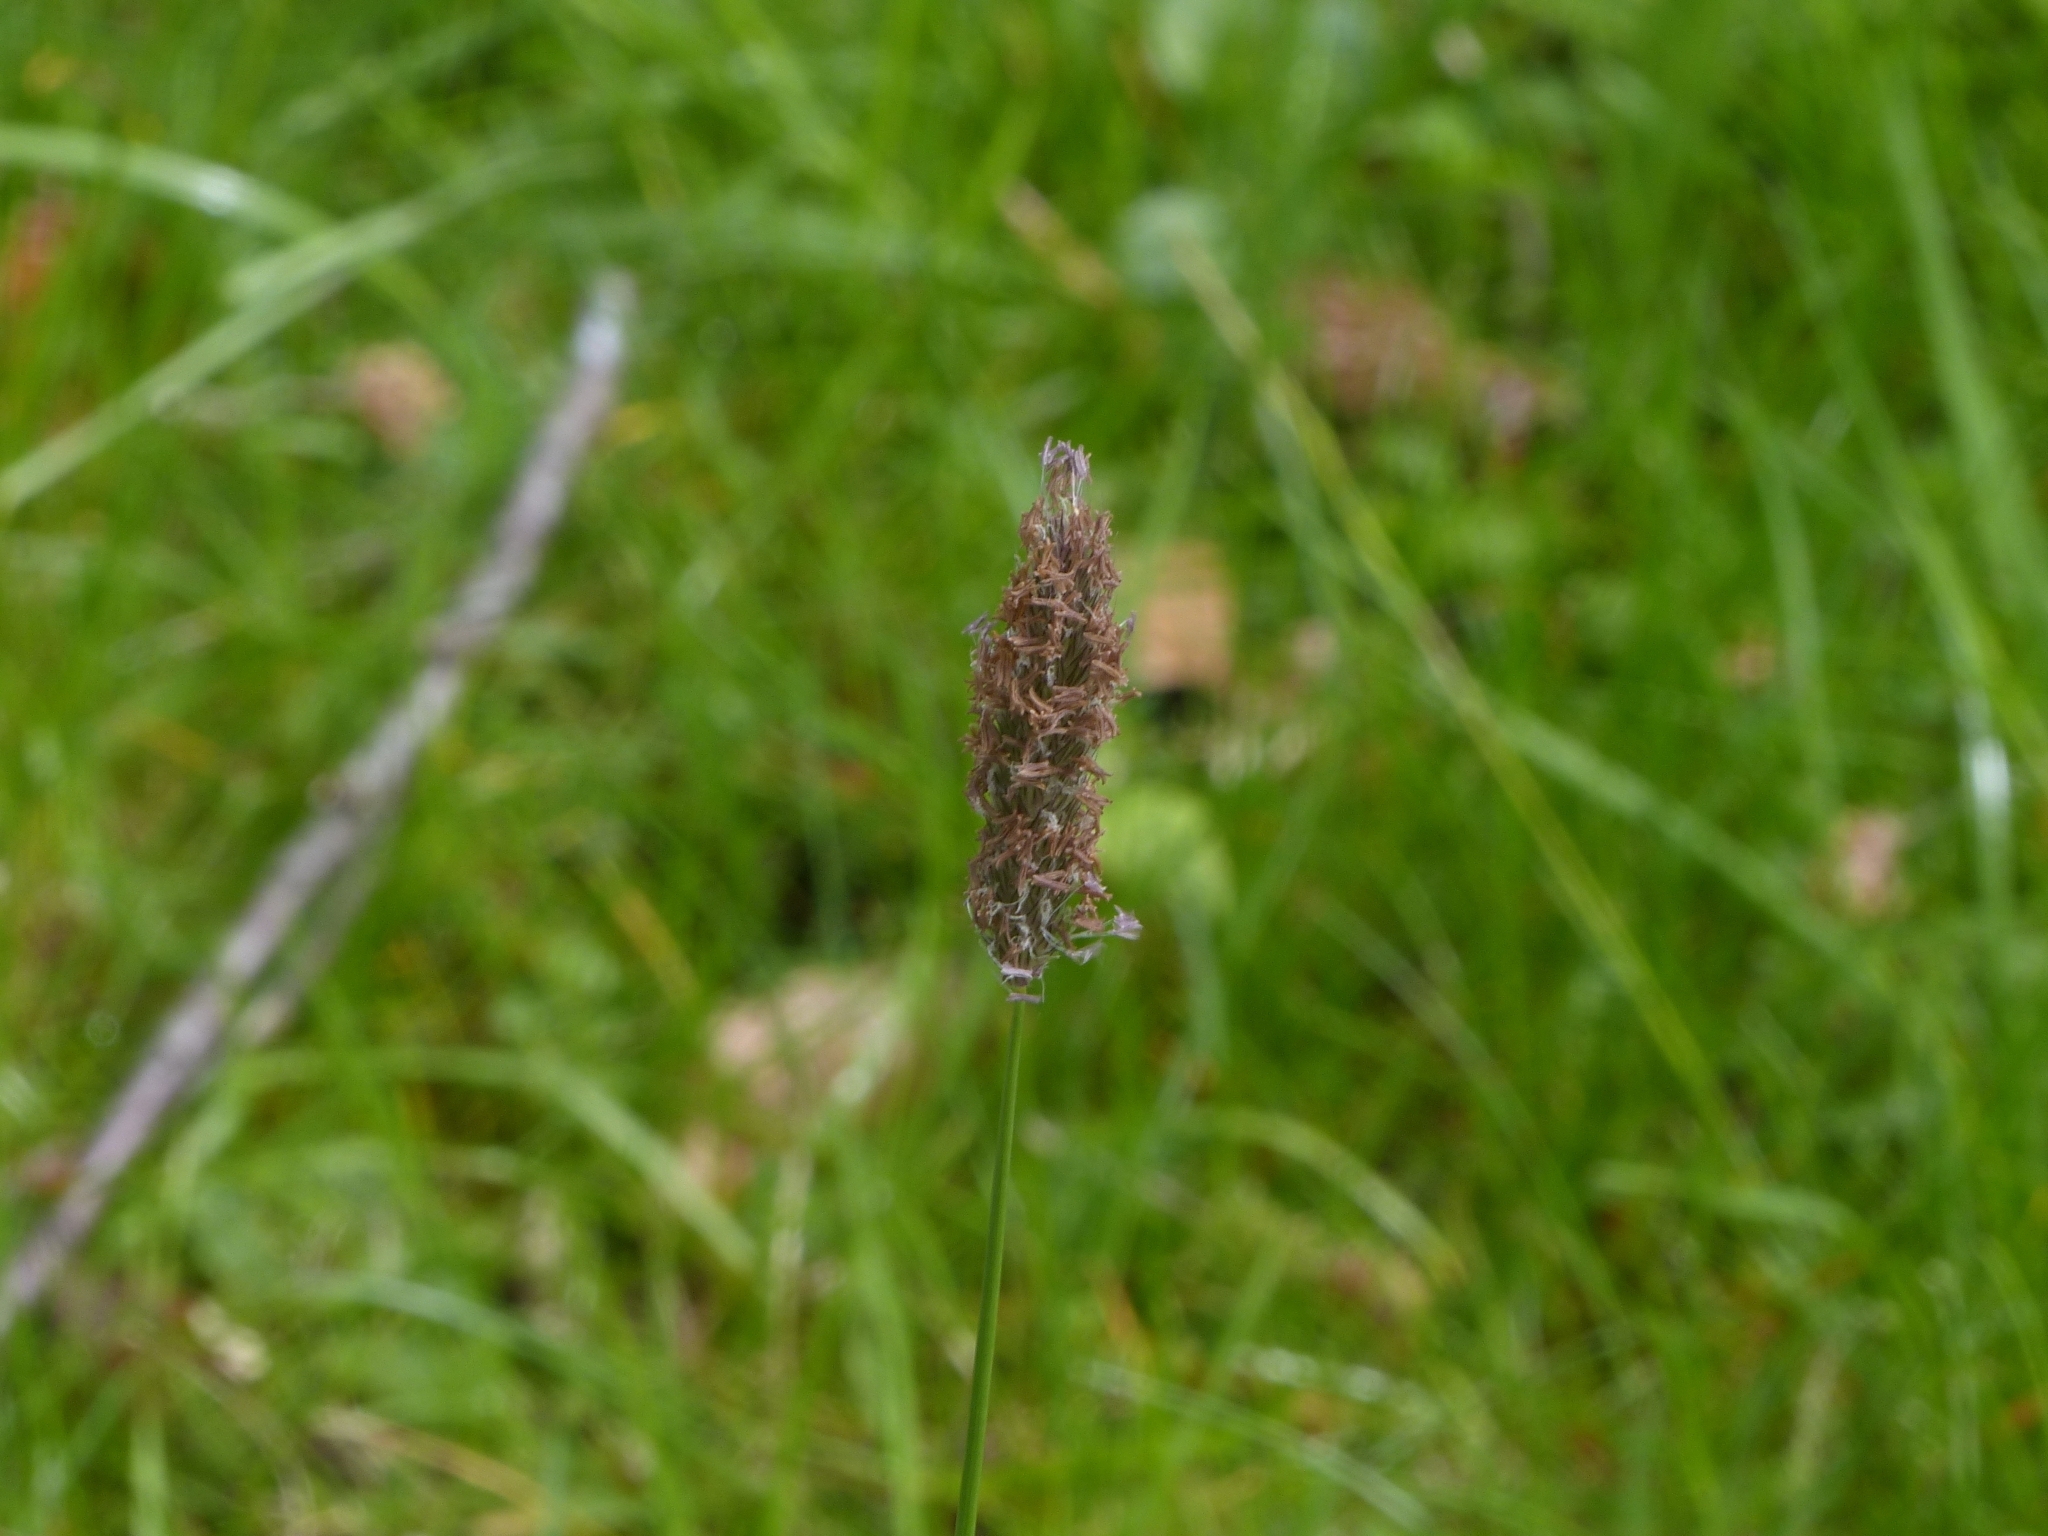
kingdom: Plantae
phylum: Tracheophyta
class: Liliopsida
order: Poales
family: Poaceae
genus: Alopecurus
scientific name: Alopecurus pratensis
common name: Meadow foxtail
